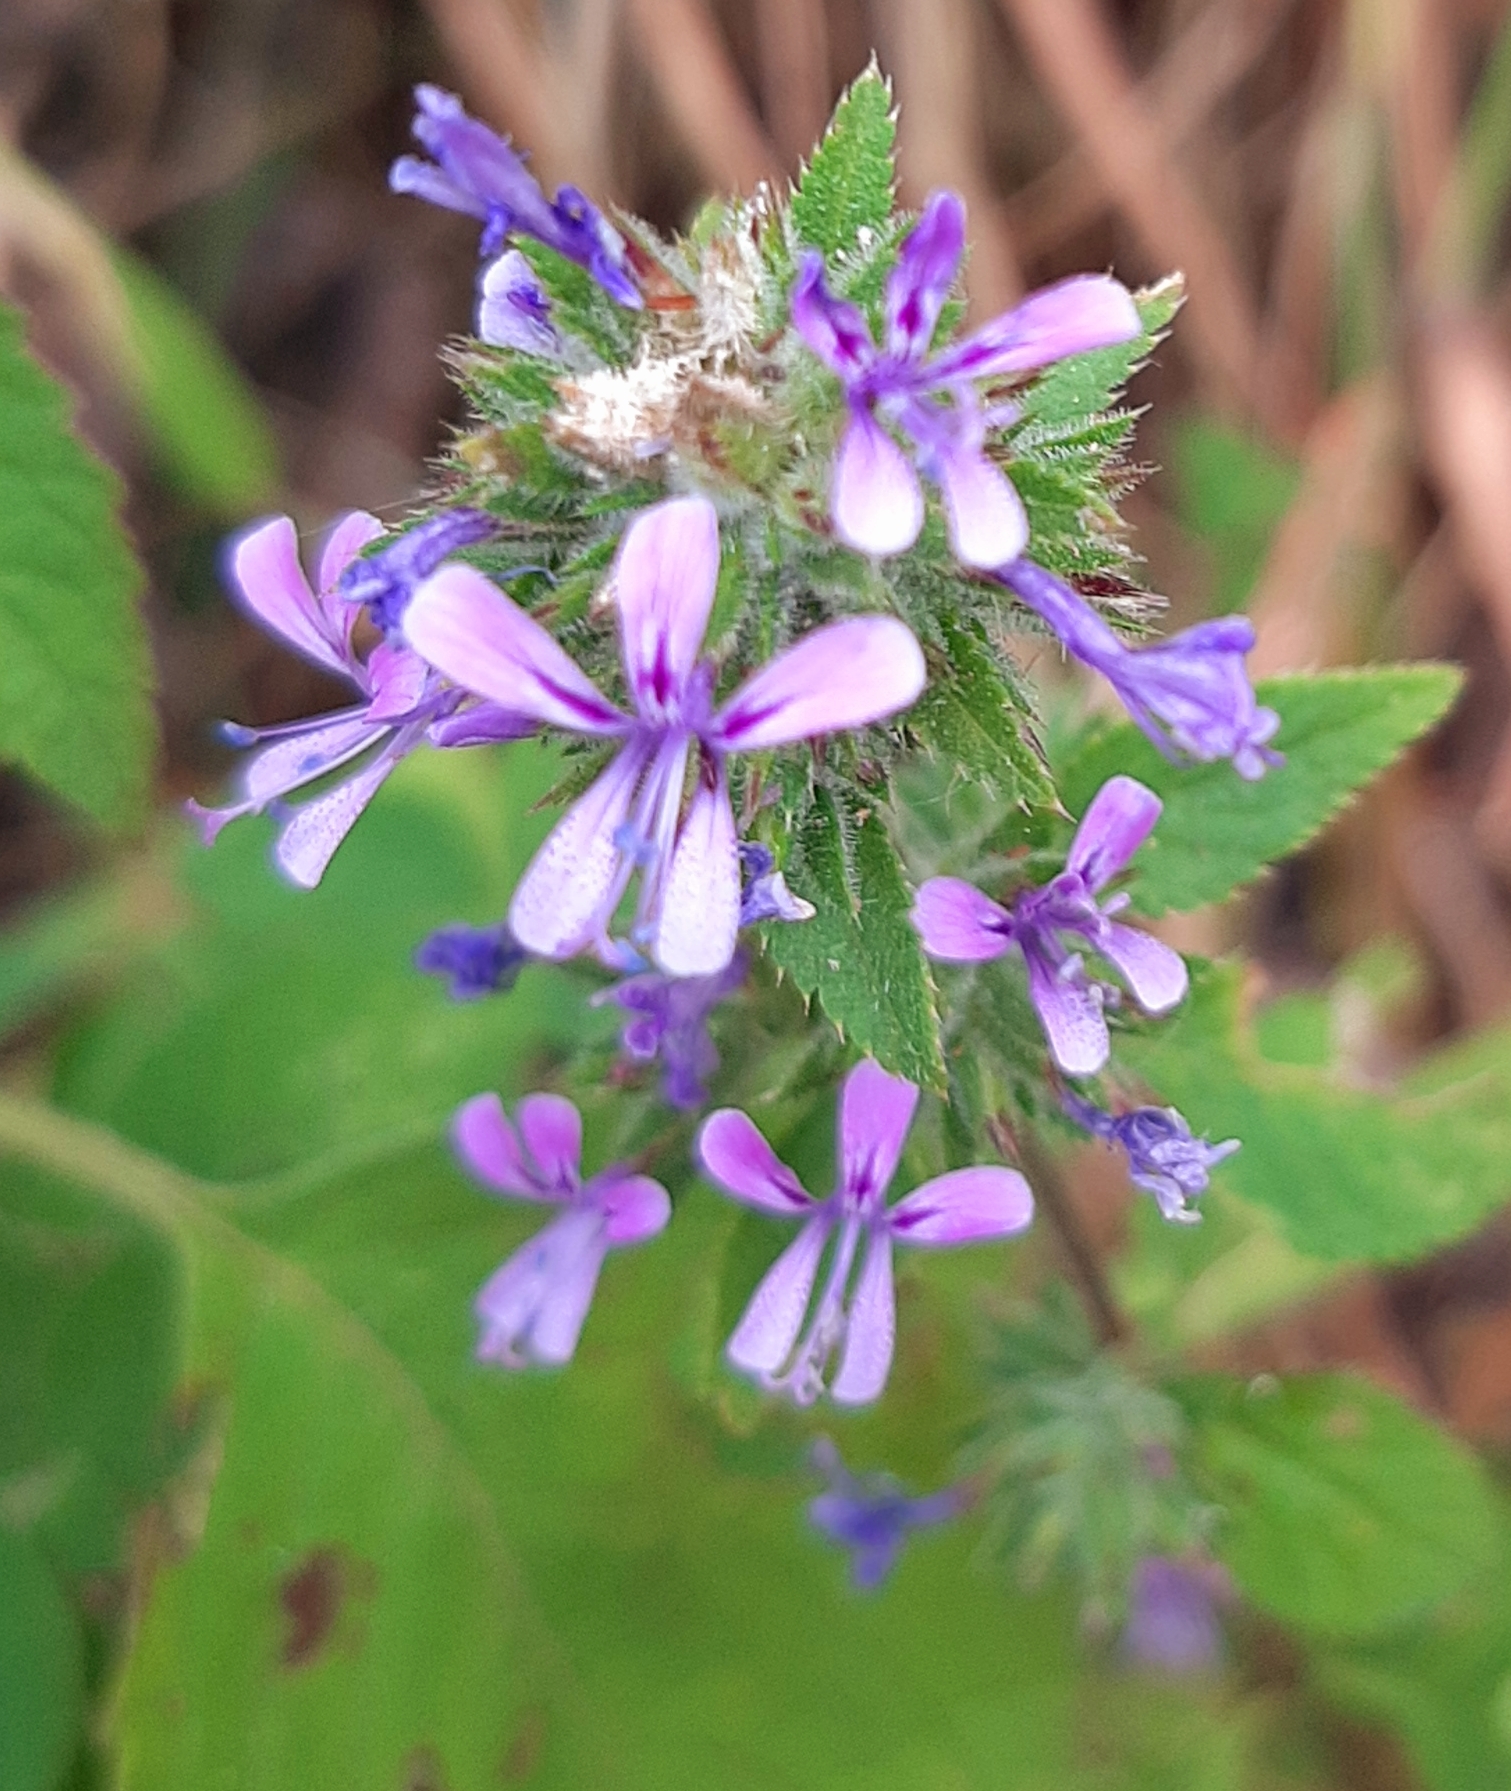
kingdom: Plantae
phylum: Tracheophyta
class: Magnoliopsida
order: Ericales
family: Polemoniaceae
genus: Loeselia
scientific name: Loeselia glandulosa
